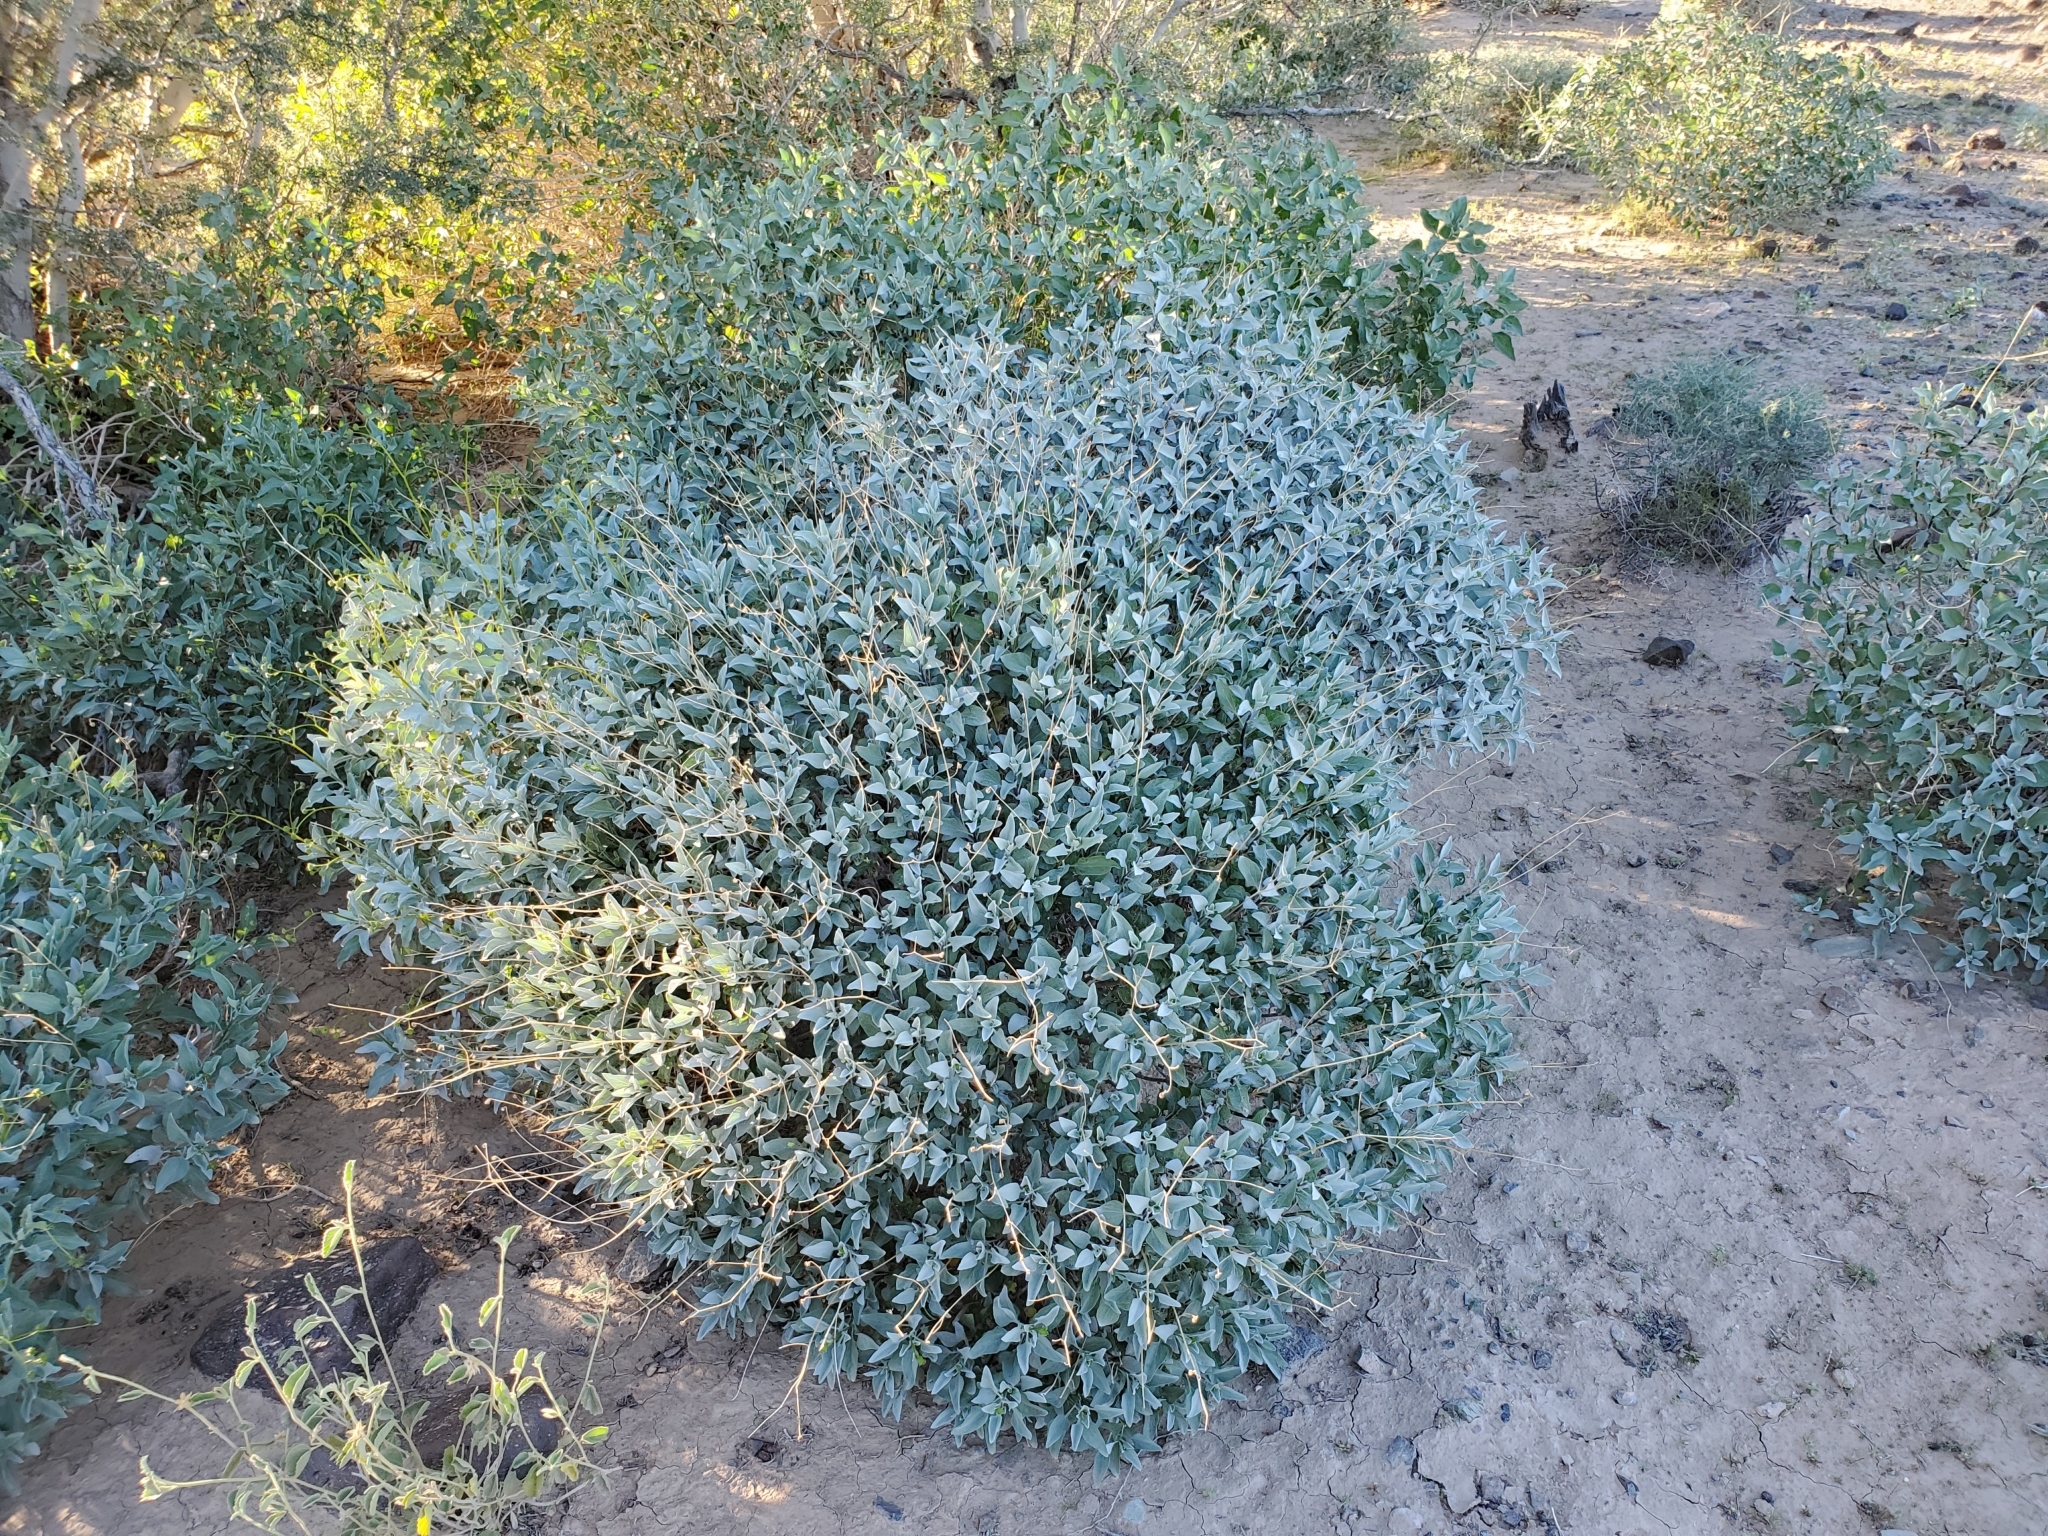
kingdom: Plantae
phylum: Tracheophyta
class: Magnoliopsida
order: Asterales
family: Asteraceae
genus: Encelia
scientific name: Encelia farinosa
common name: Brittlebush
